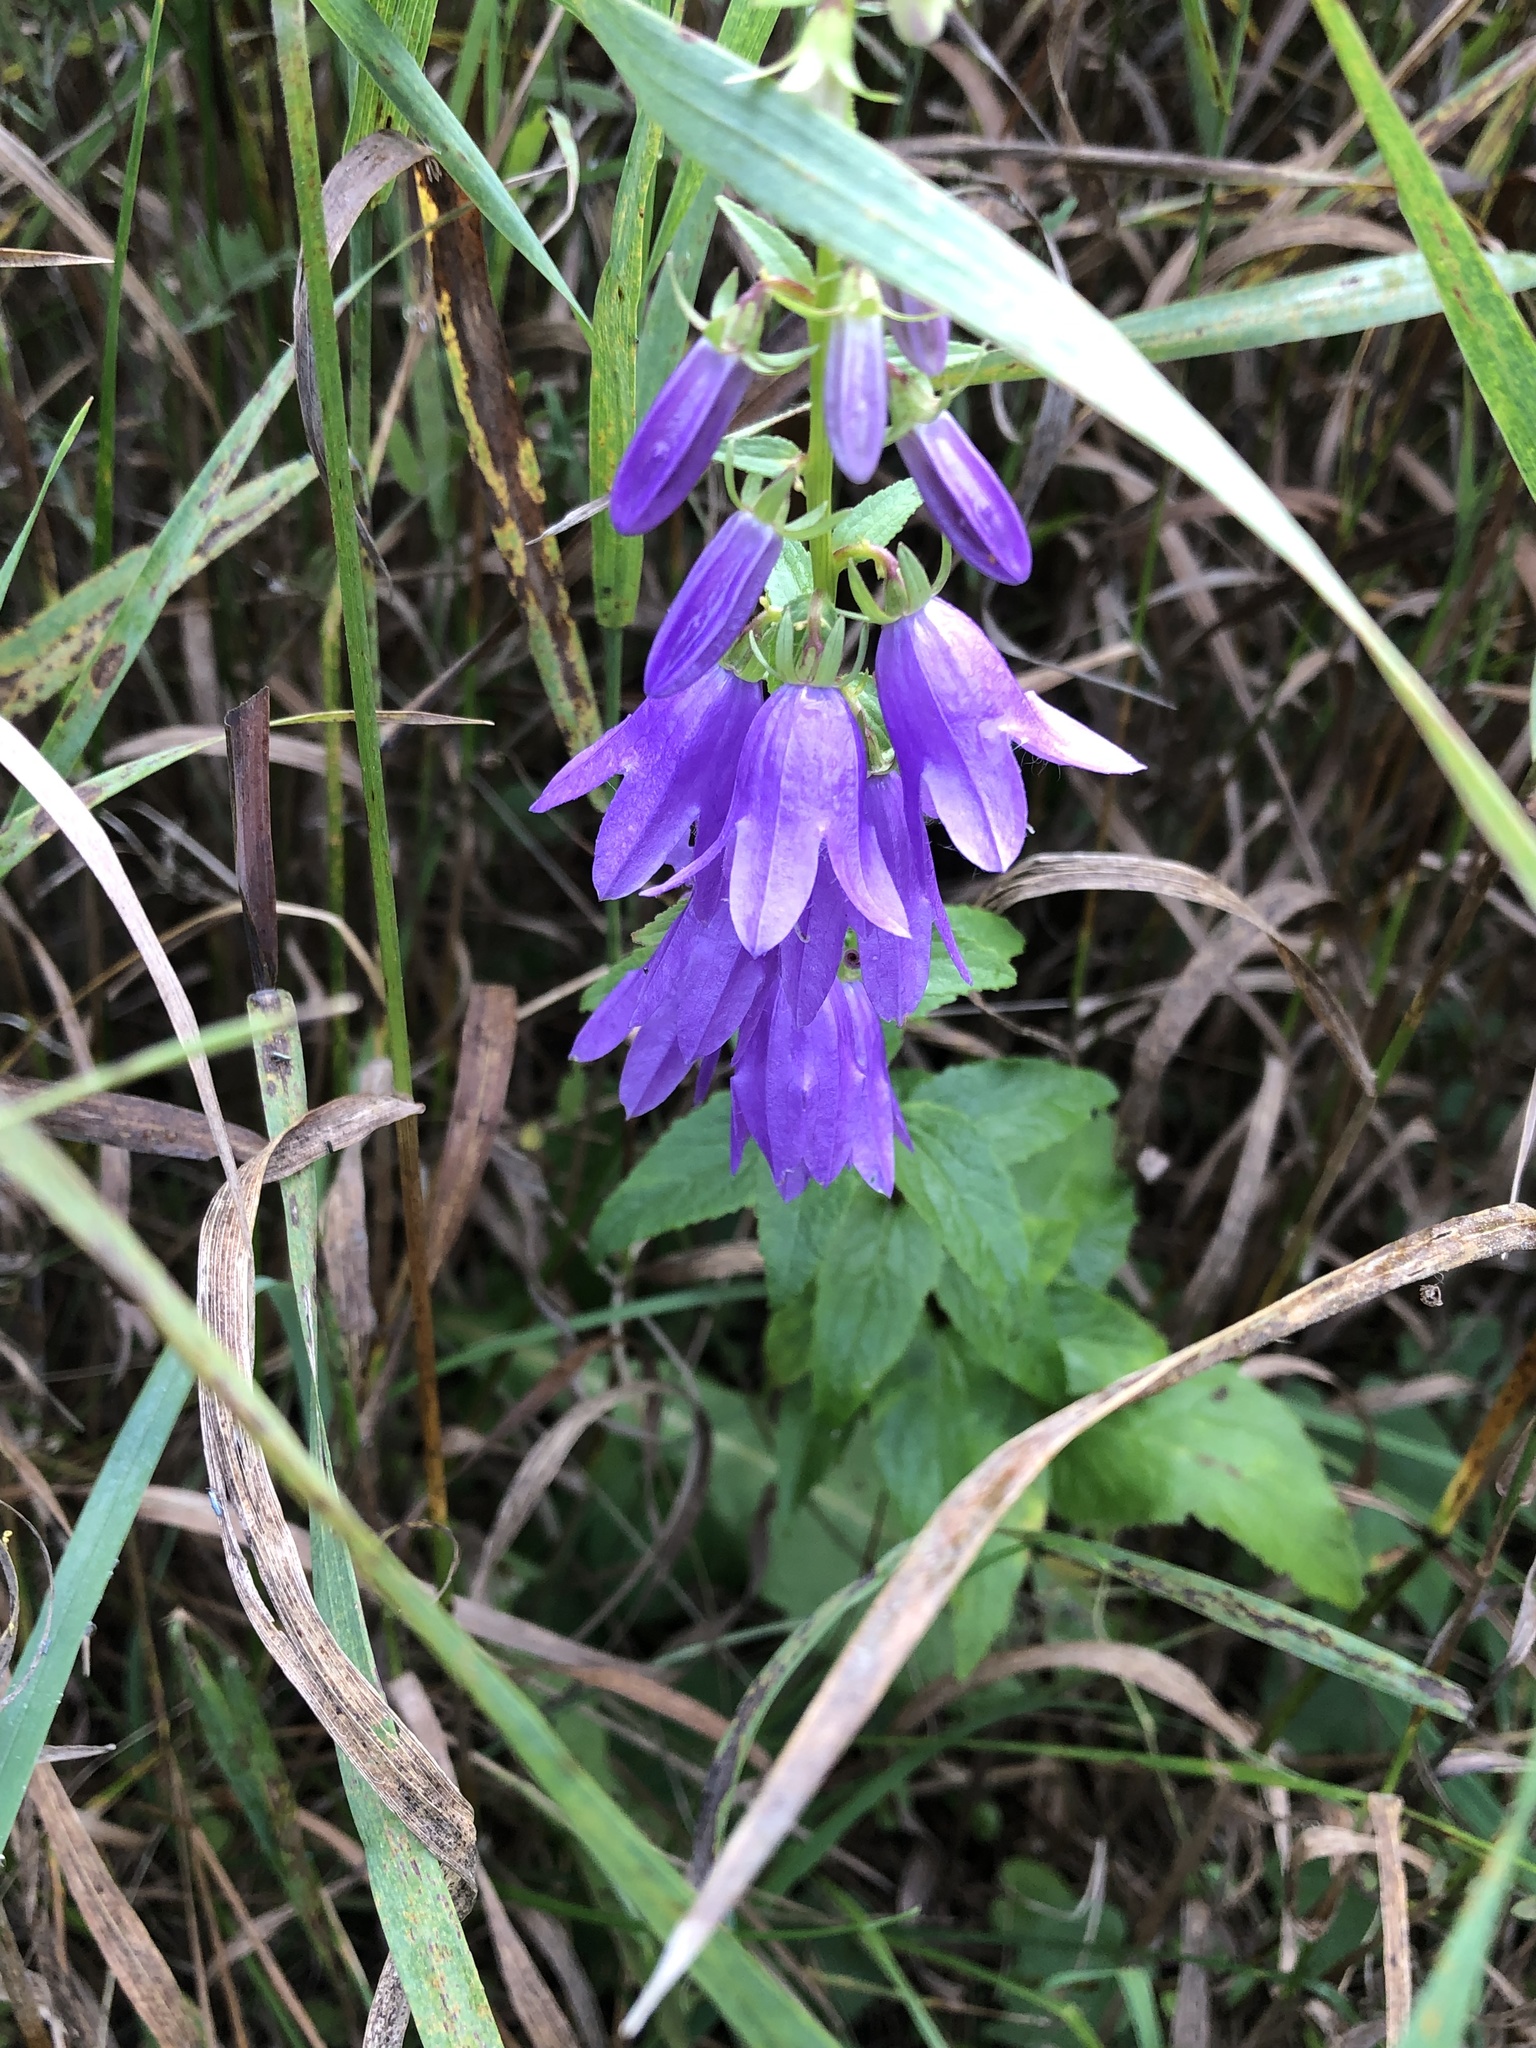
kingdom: Plantae
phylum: Tracheophyta
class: Magnoliopsida
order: Asterales
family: Campanulaceae
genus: Campanula
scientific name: Campanula rapunculoides
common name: Creeping bellflower
